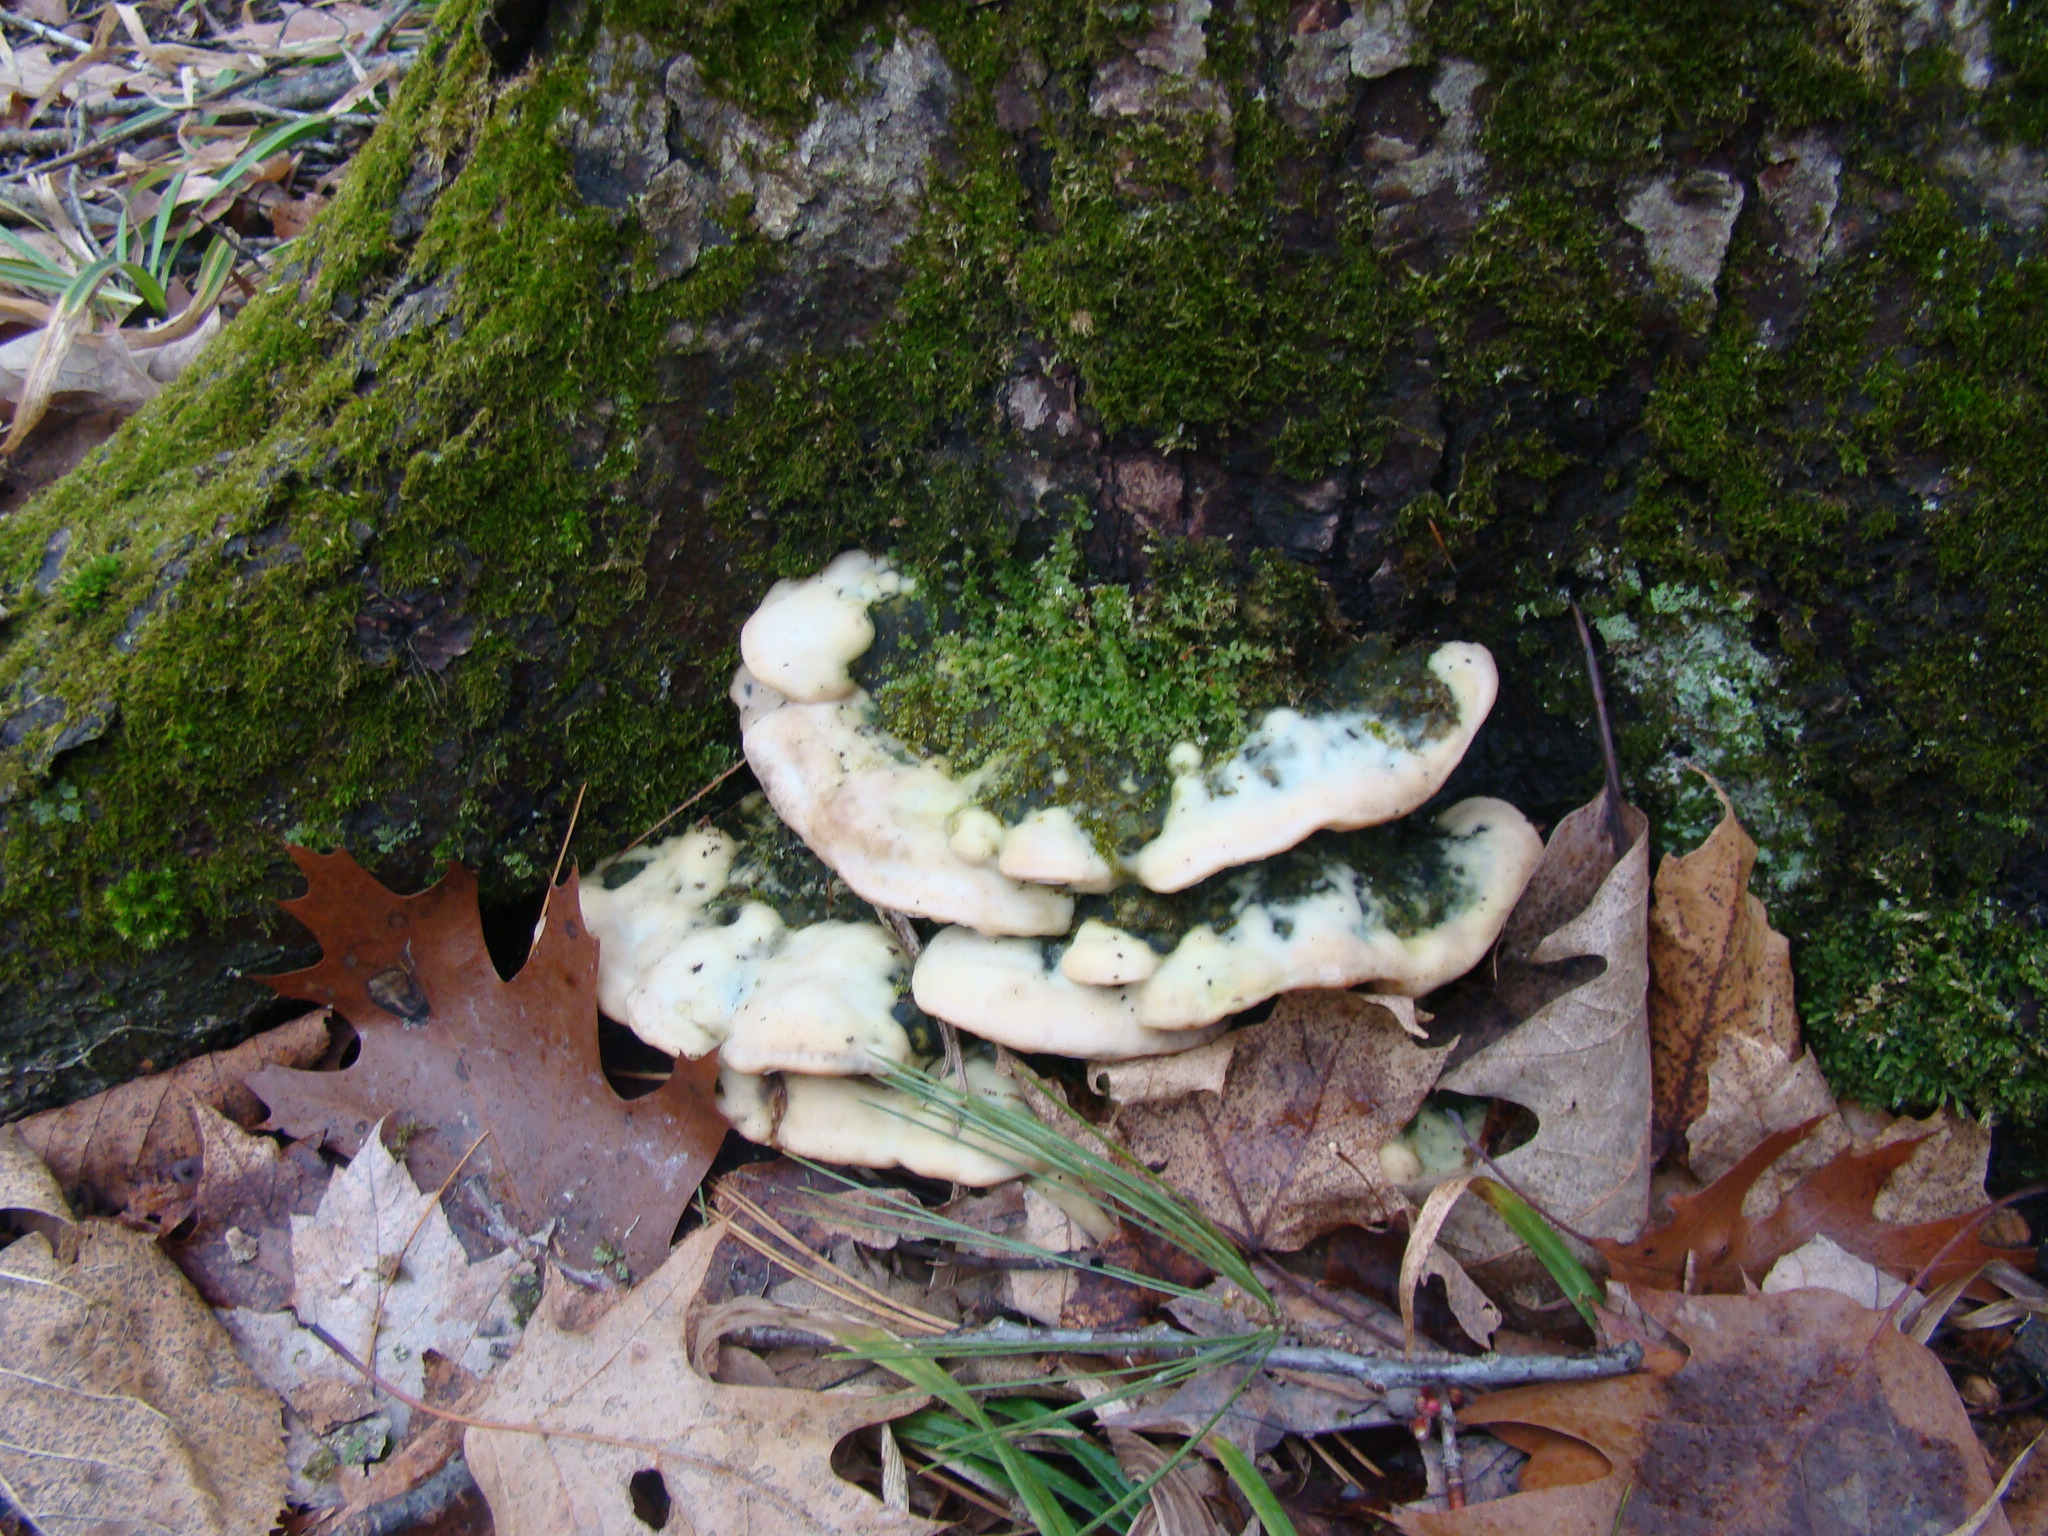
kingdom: Fungi
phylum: Basidiomycota
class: Agaricomycetes
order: Hymenochaetales
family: Oxyporaceae
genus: Oxyporus
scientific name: Oxyporus populinus
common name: Poplar bracket
